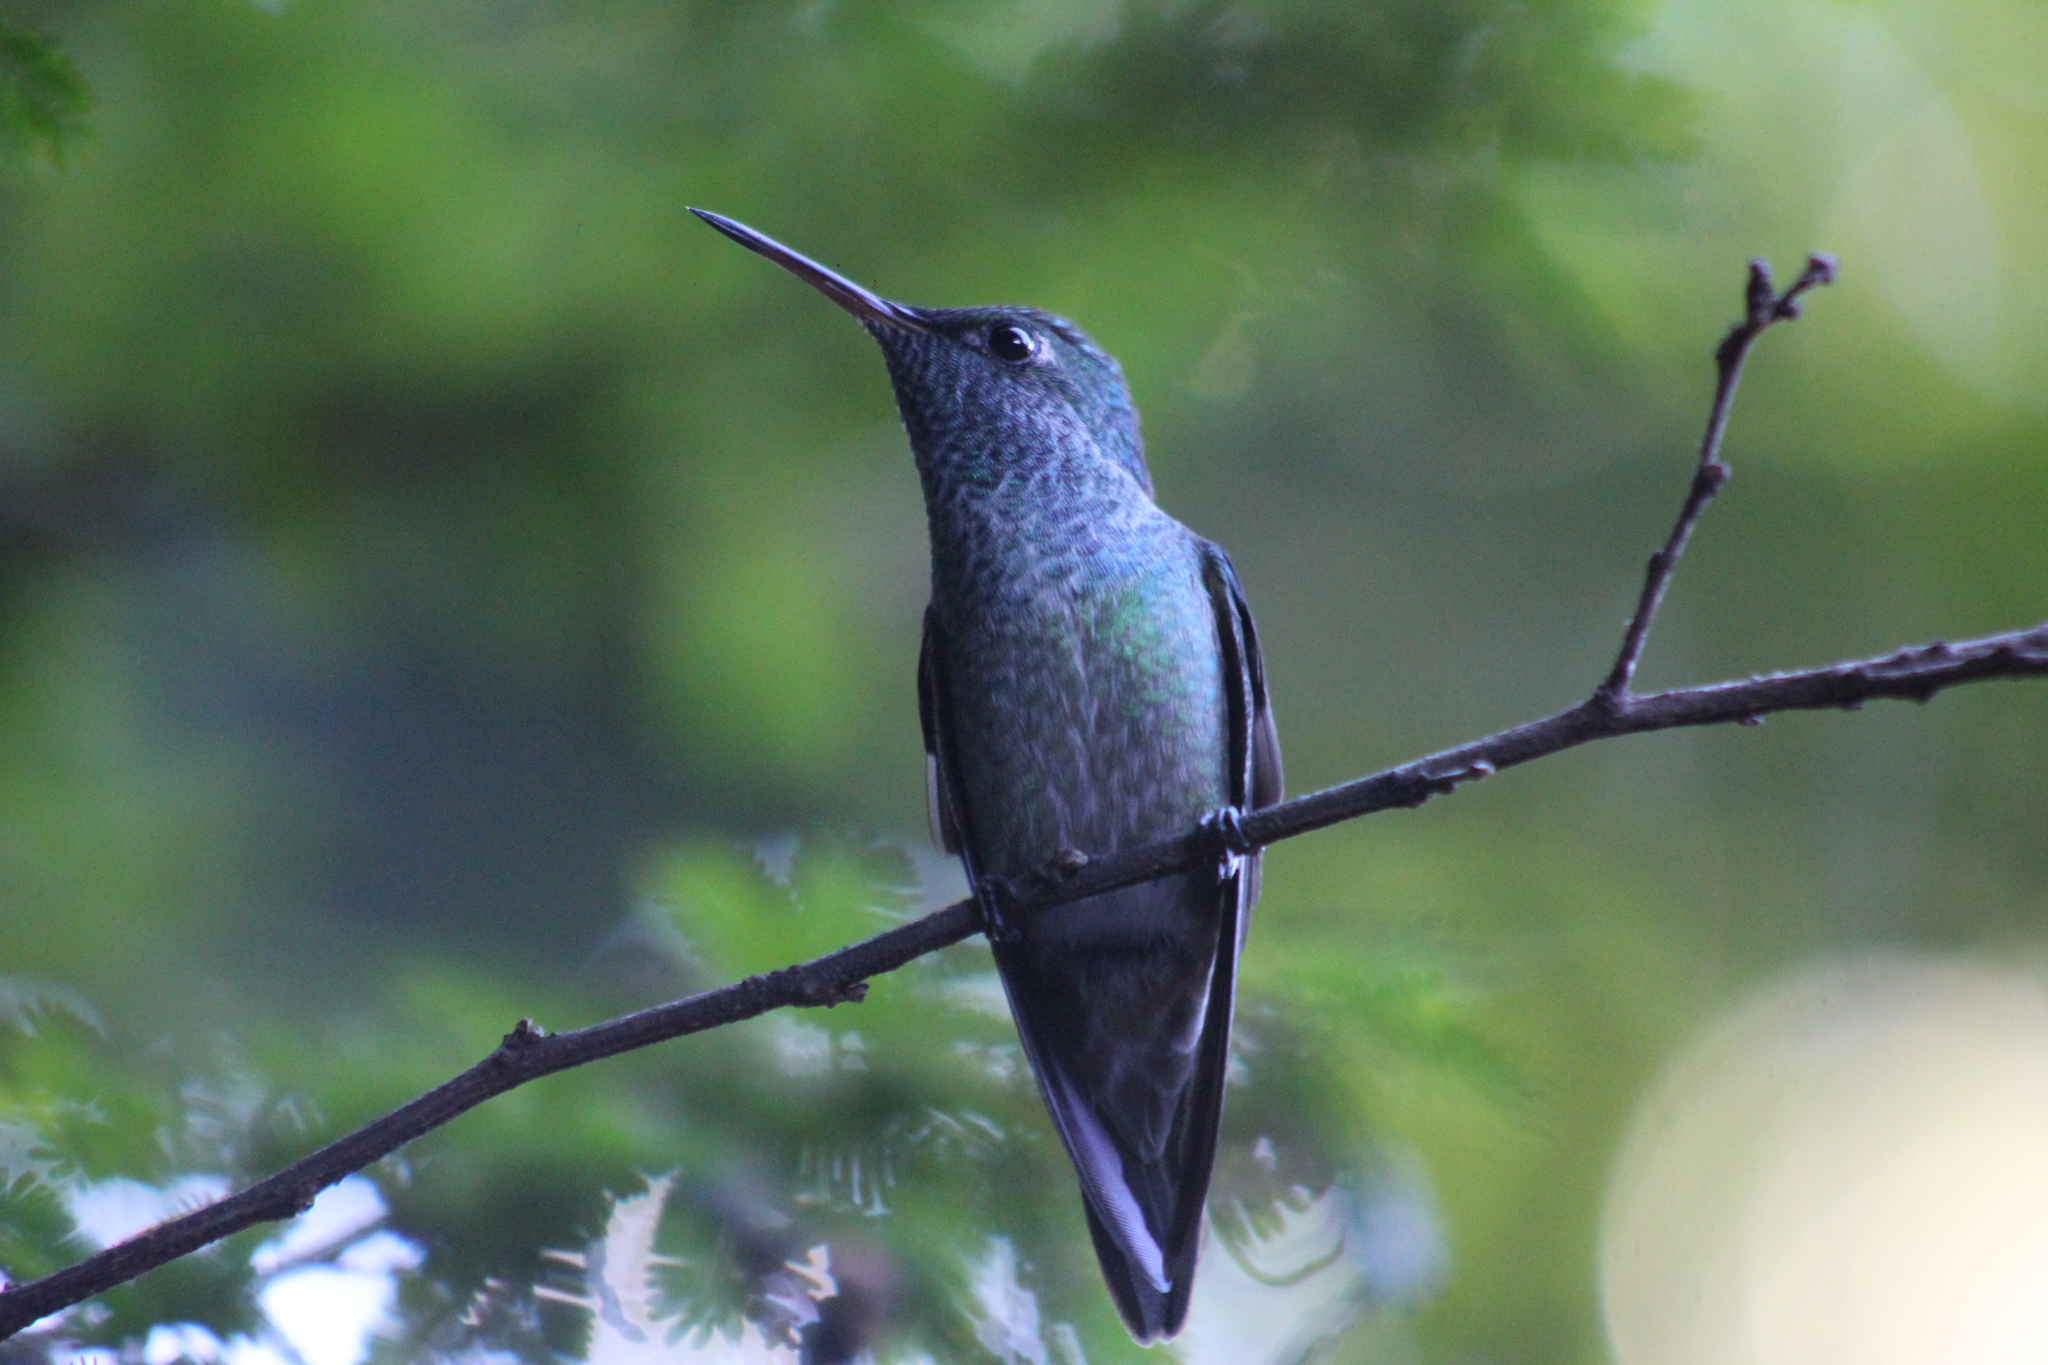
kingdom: Animalia
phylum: Chordata
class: Aves
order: Apodiformes
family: Trochilidae
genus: Chrysuronia
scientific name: Chrysuronia versicolor
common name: Versicolored emerald
